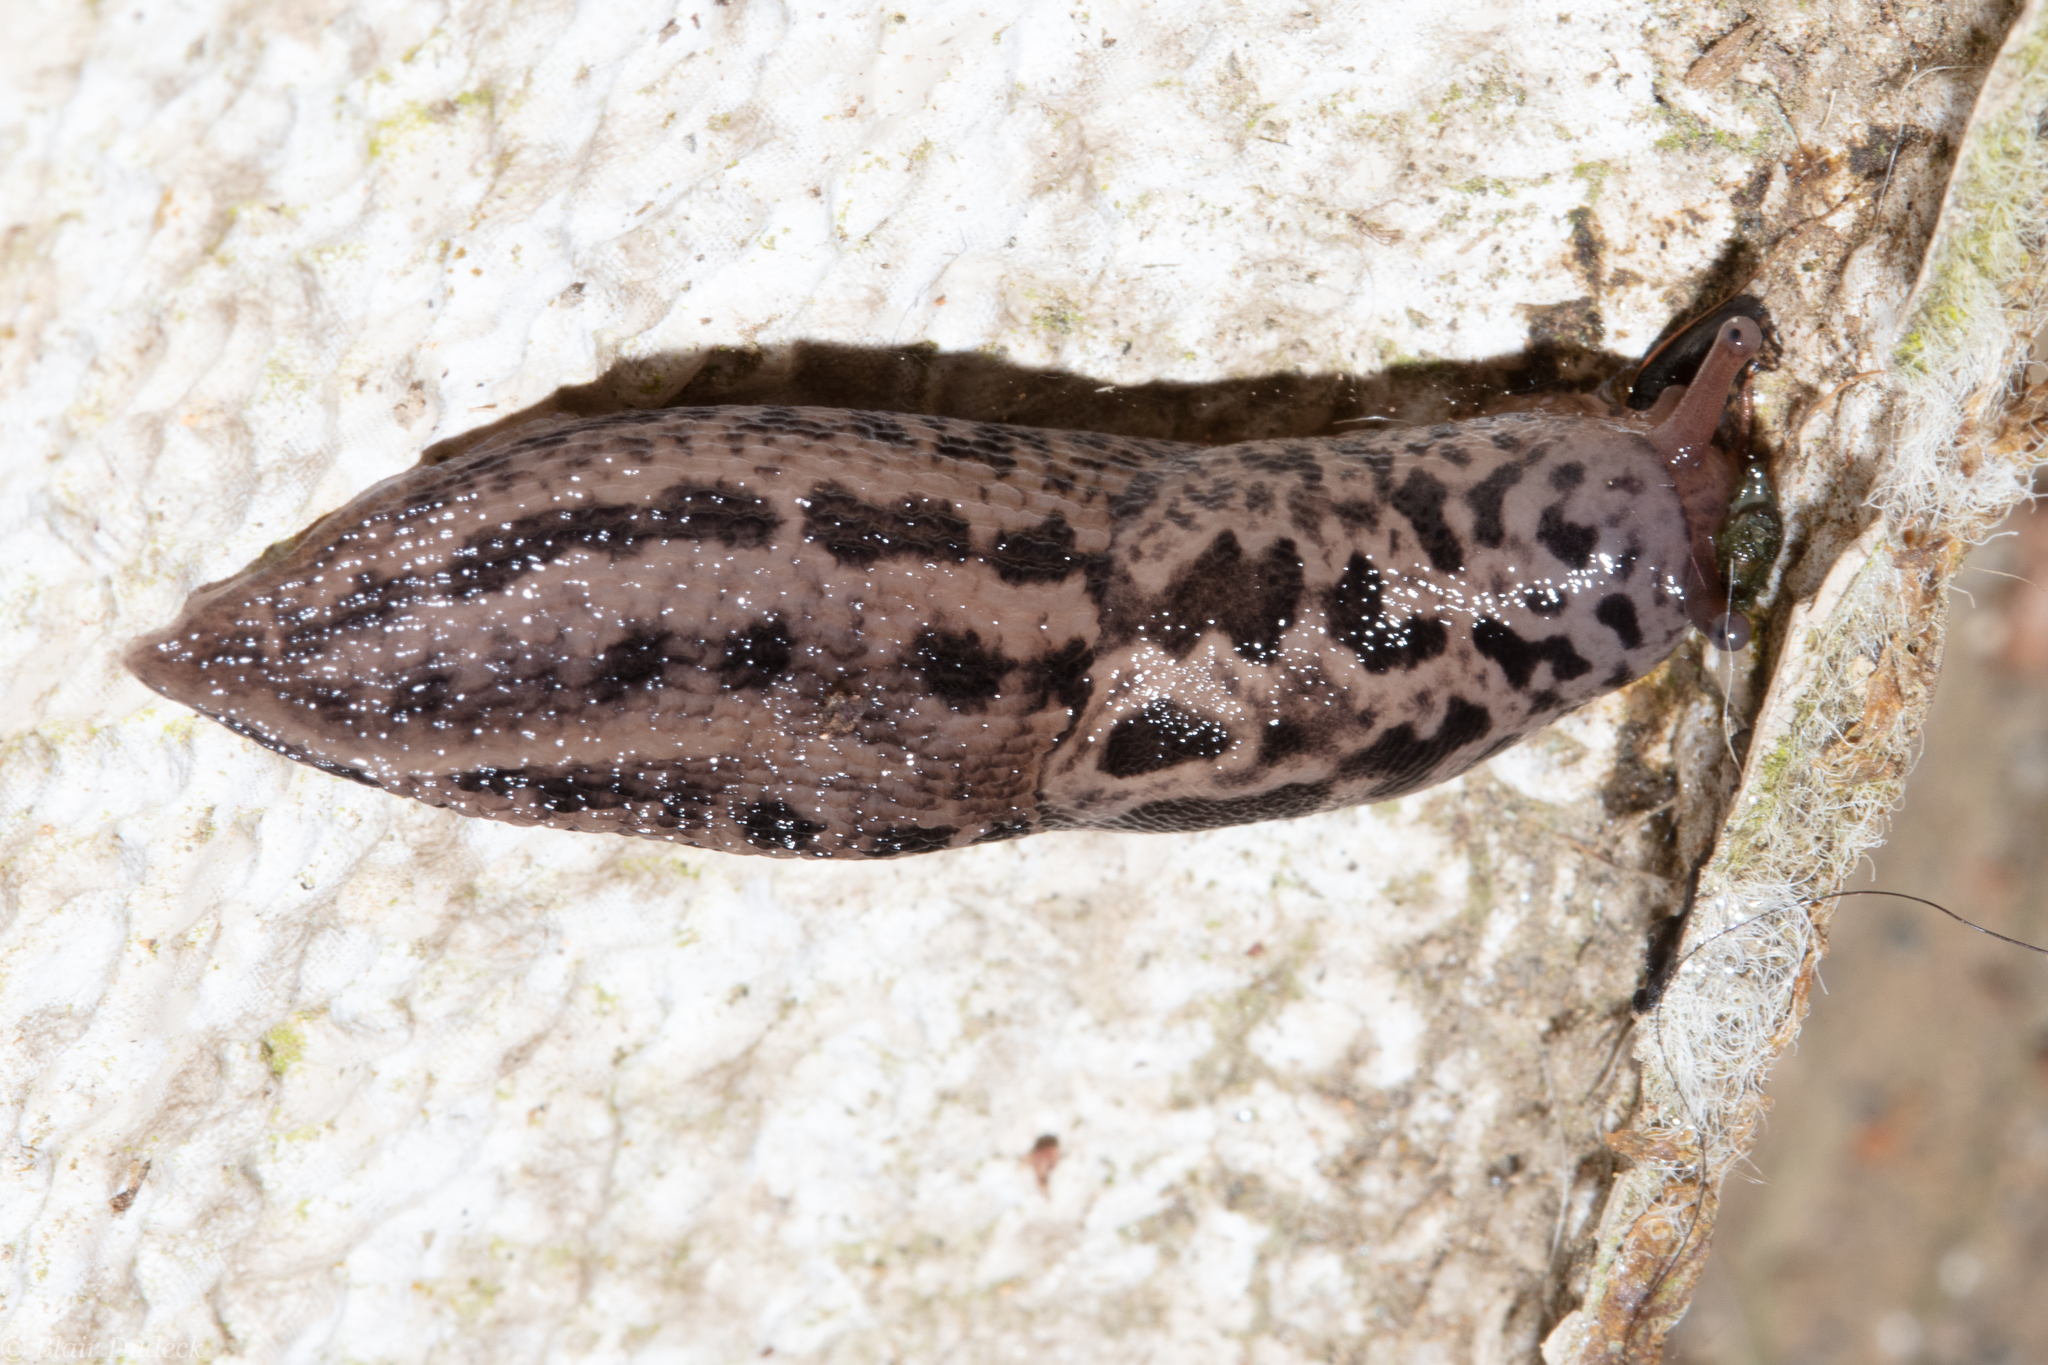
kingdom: Animalia
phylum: Mollusca
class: Gastropoda
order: Stylommatophora
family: Limacidae
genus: Limax
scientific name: Limax maximus
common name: Great grey slug
